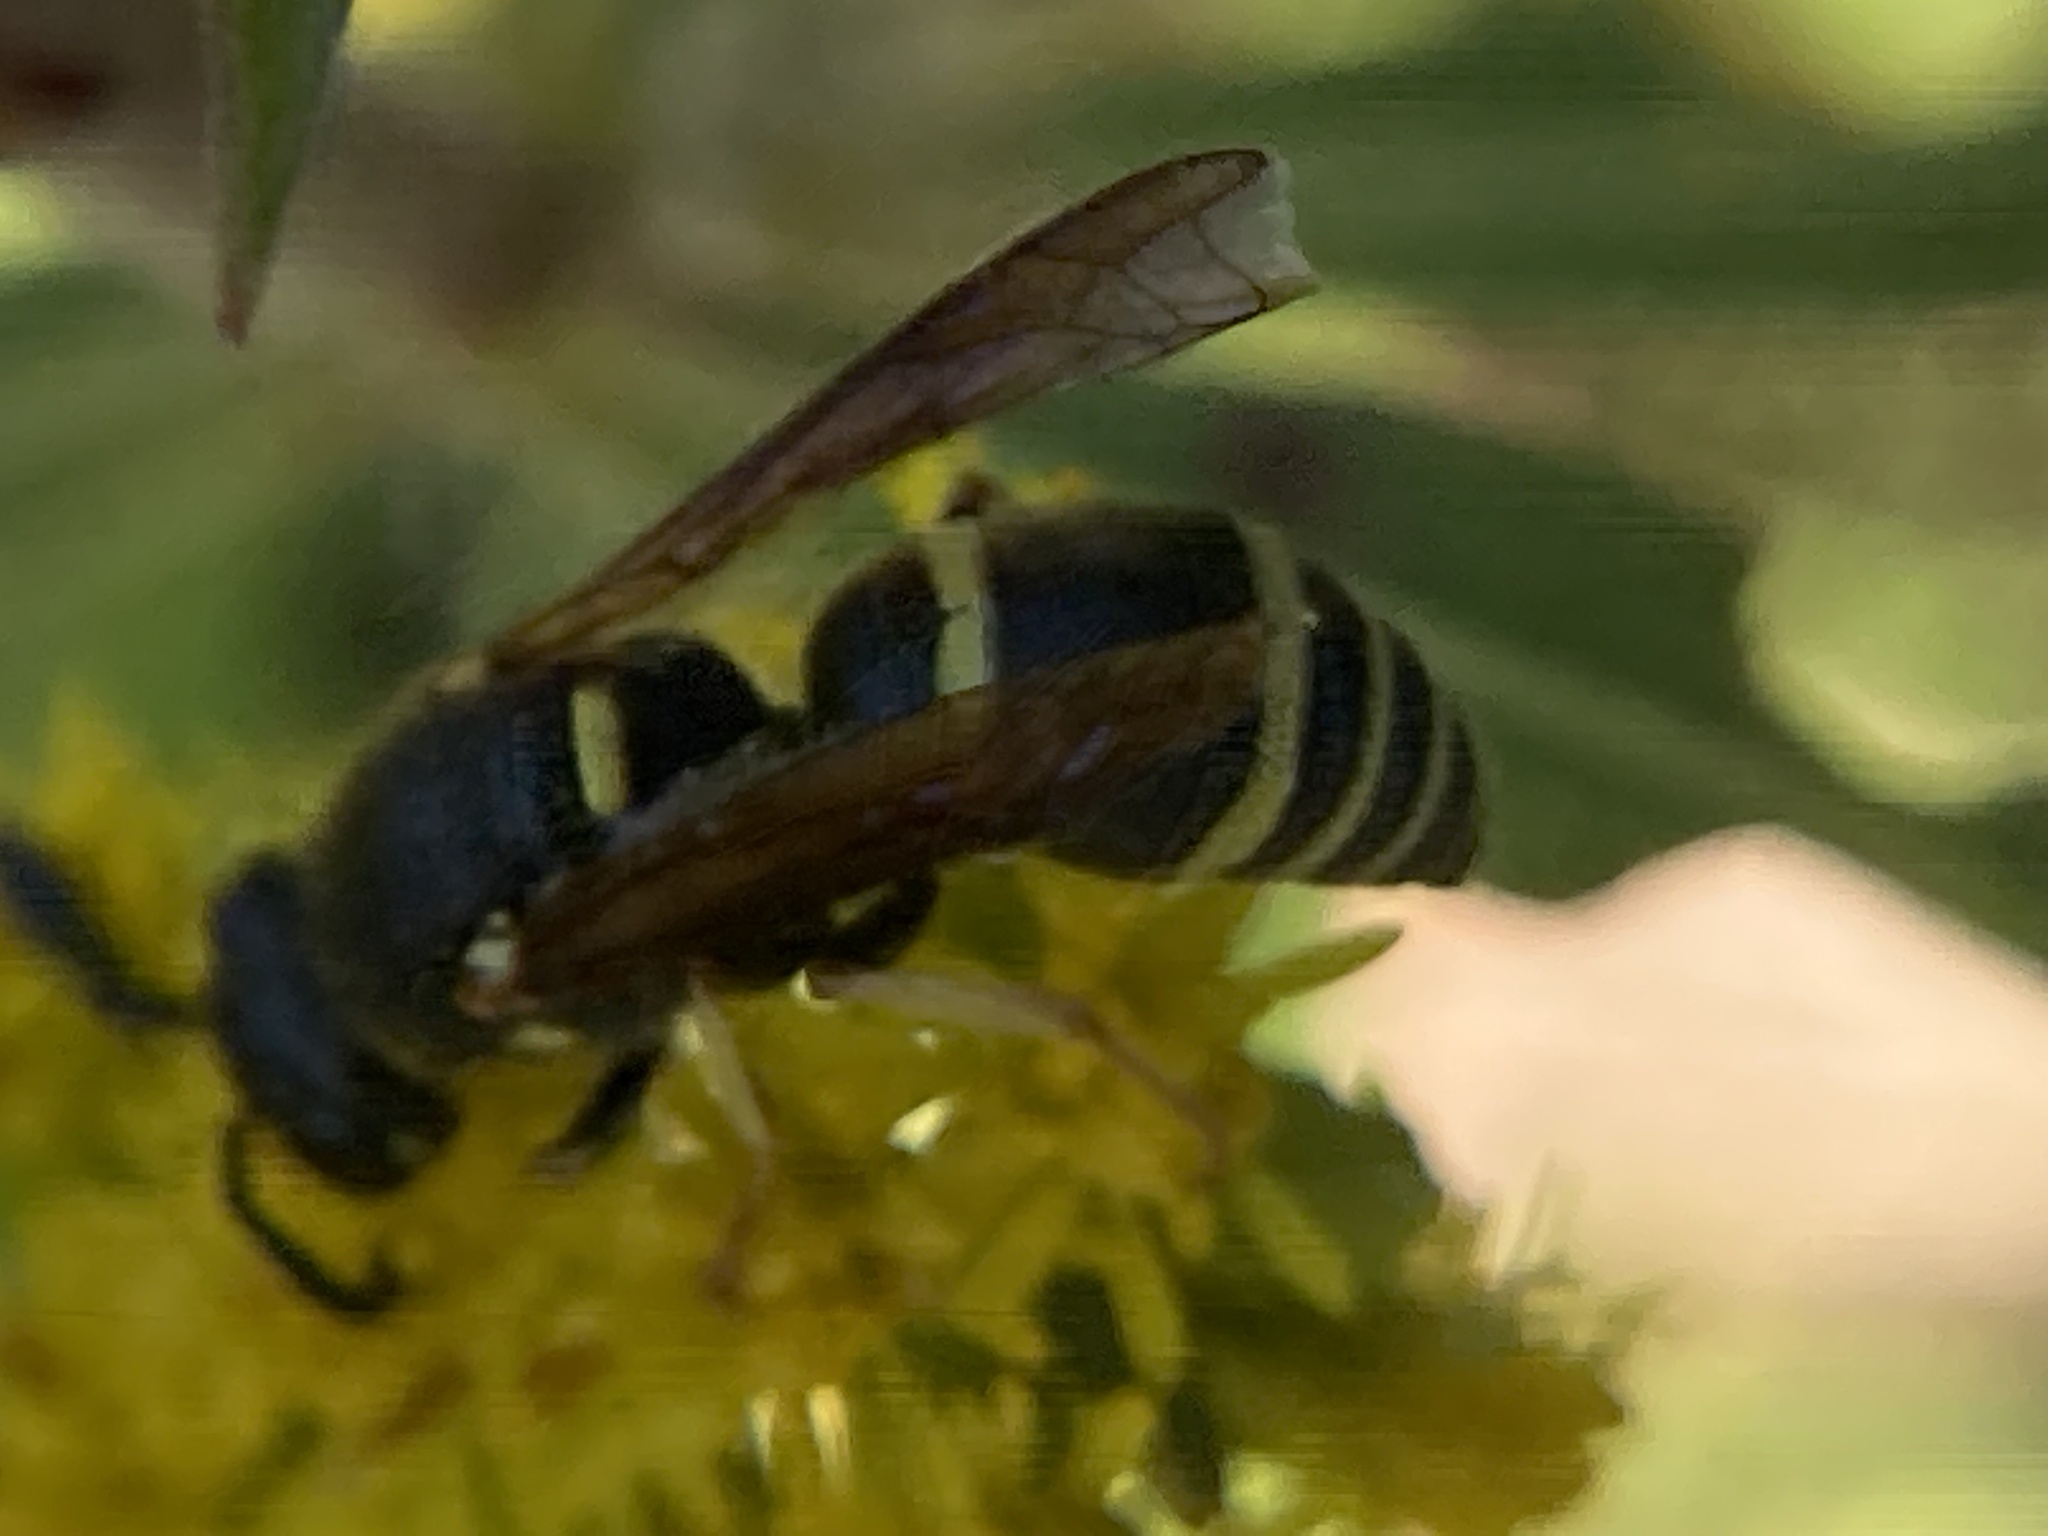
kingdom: Animalia
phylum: Arthropoda
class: Insecta
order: Hymenoptera
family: Eumenidae
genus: Euodynerus
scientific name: Euodynerus foraminatus
